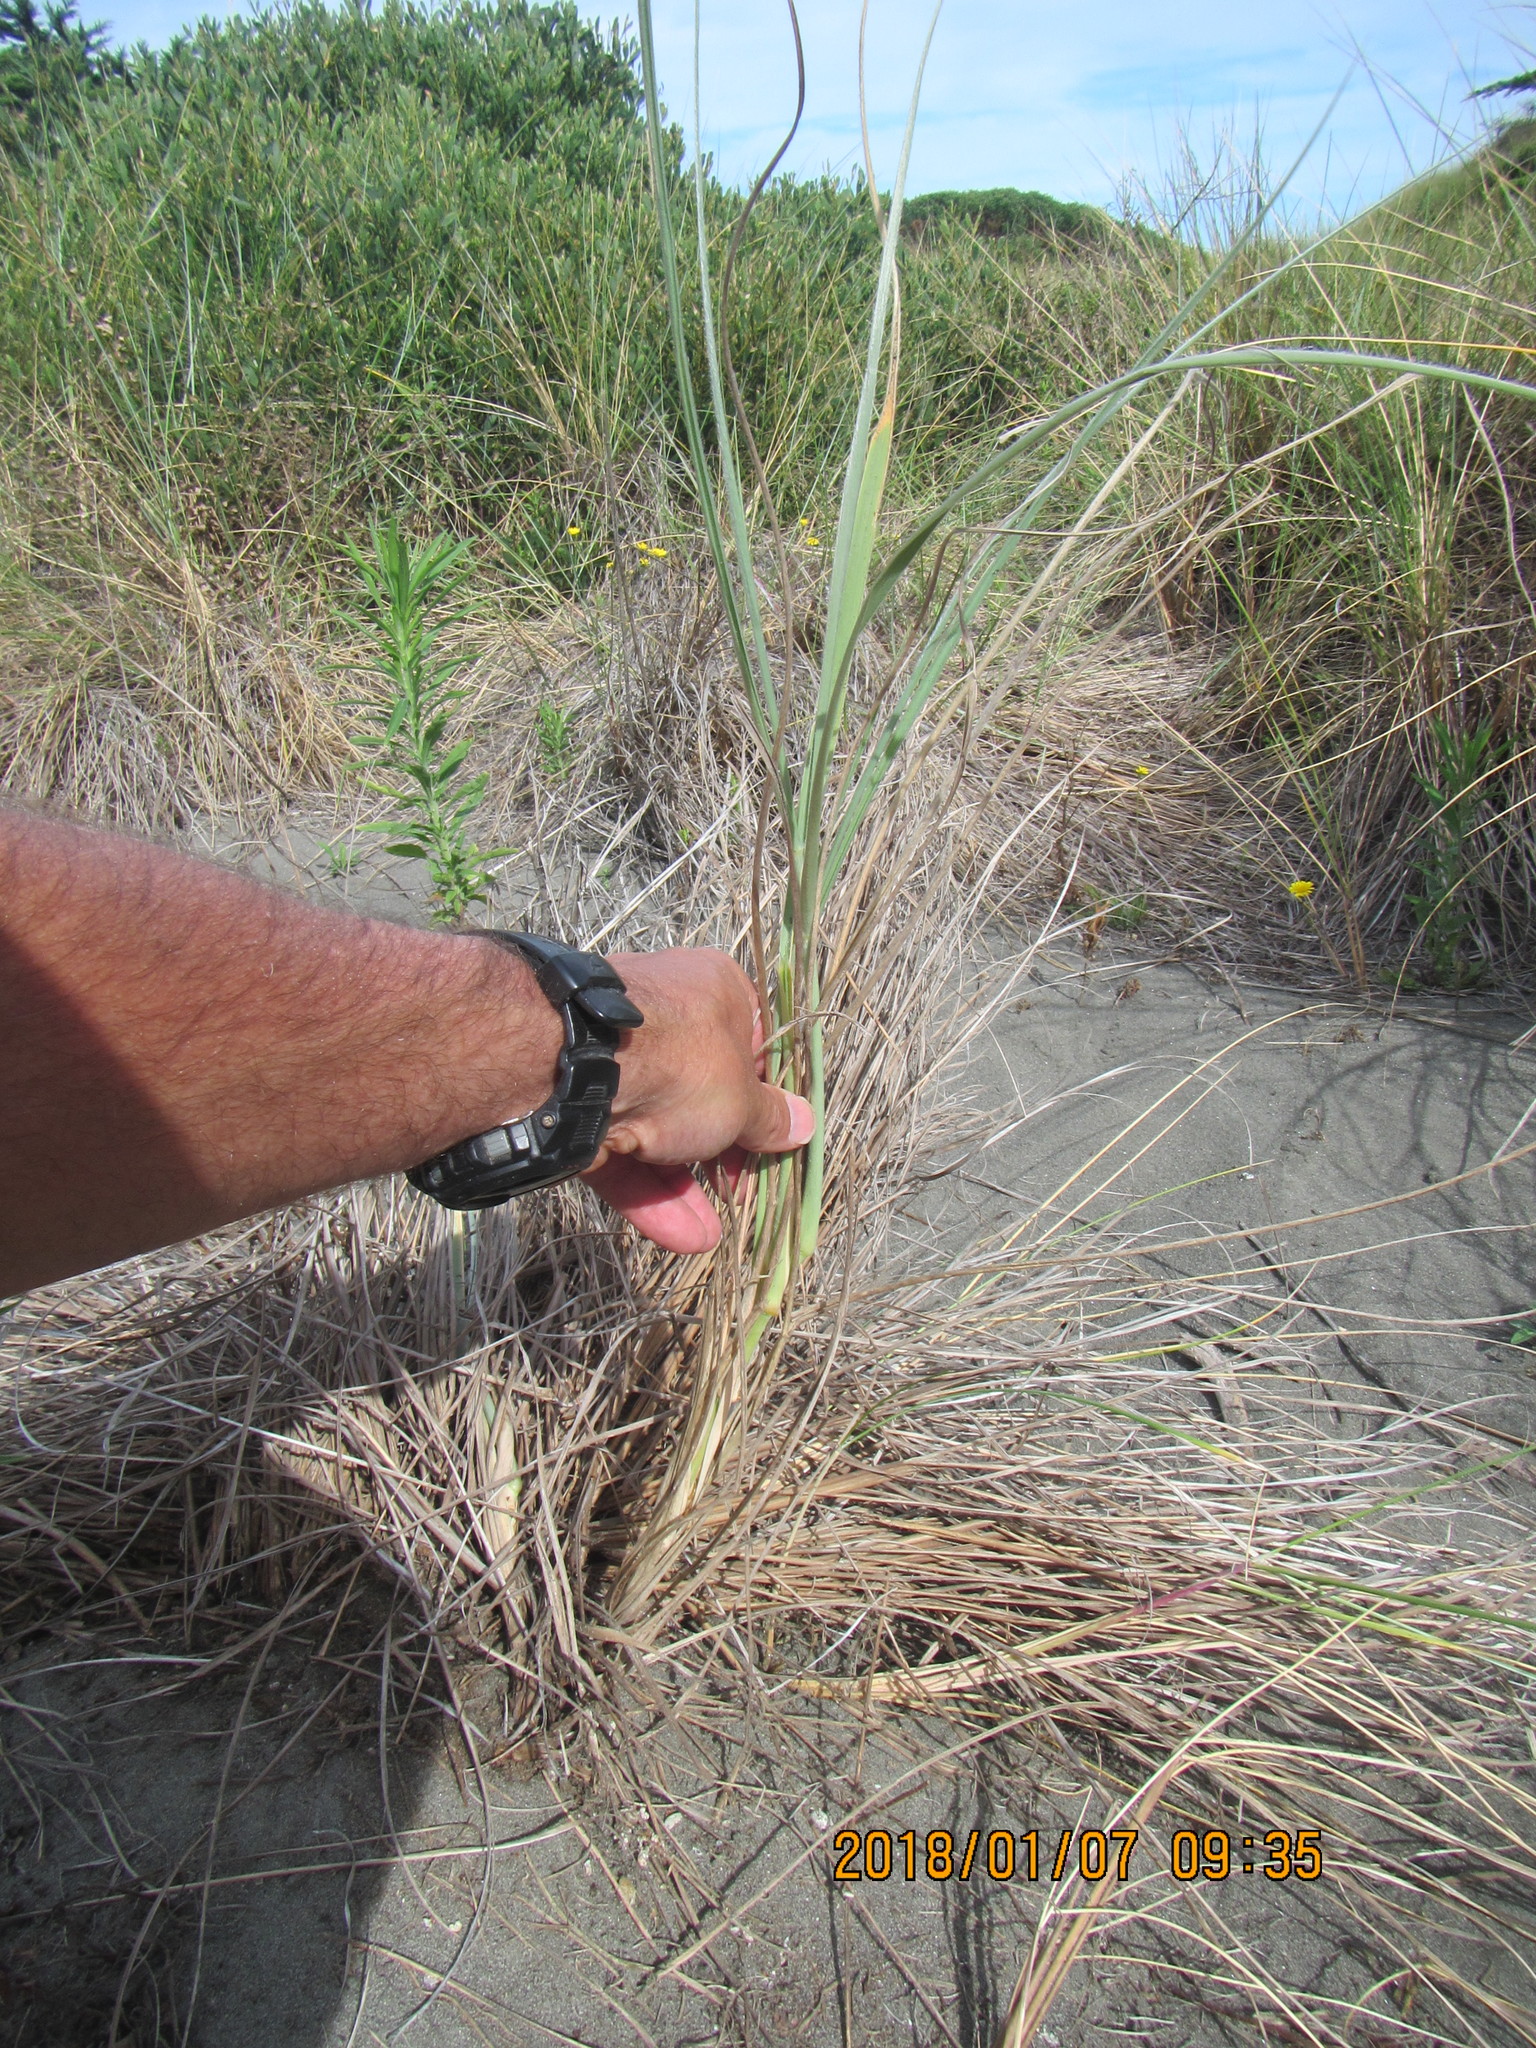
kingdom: Plantae
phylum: Tracheophyta
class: Liliopsida
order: Poales
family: Poaceae
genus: Spinifex
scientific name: Spinifex sericeus
